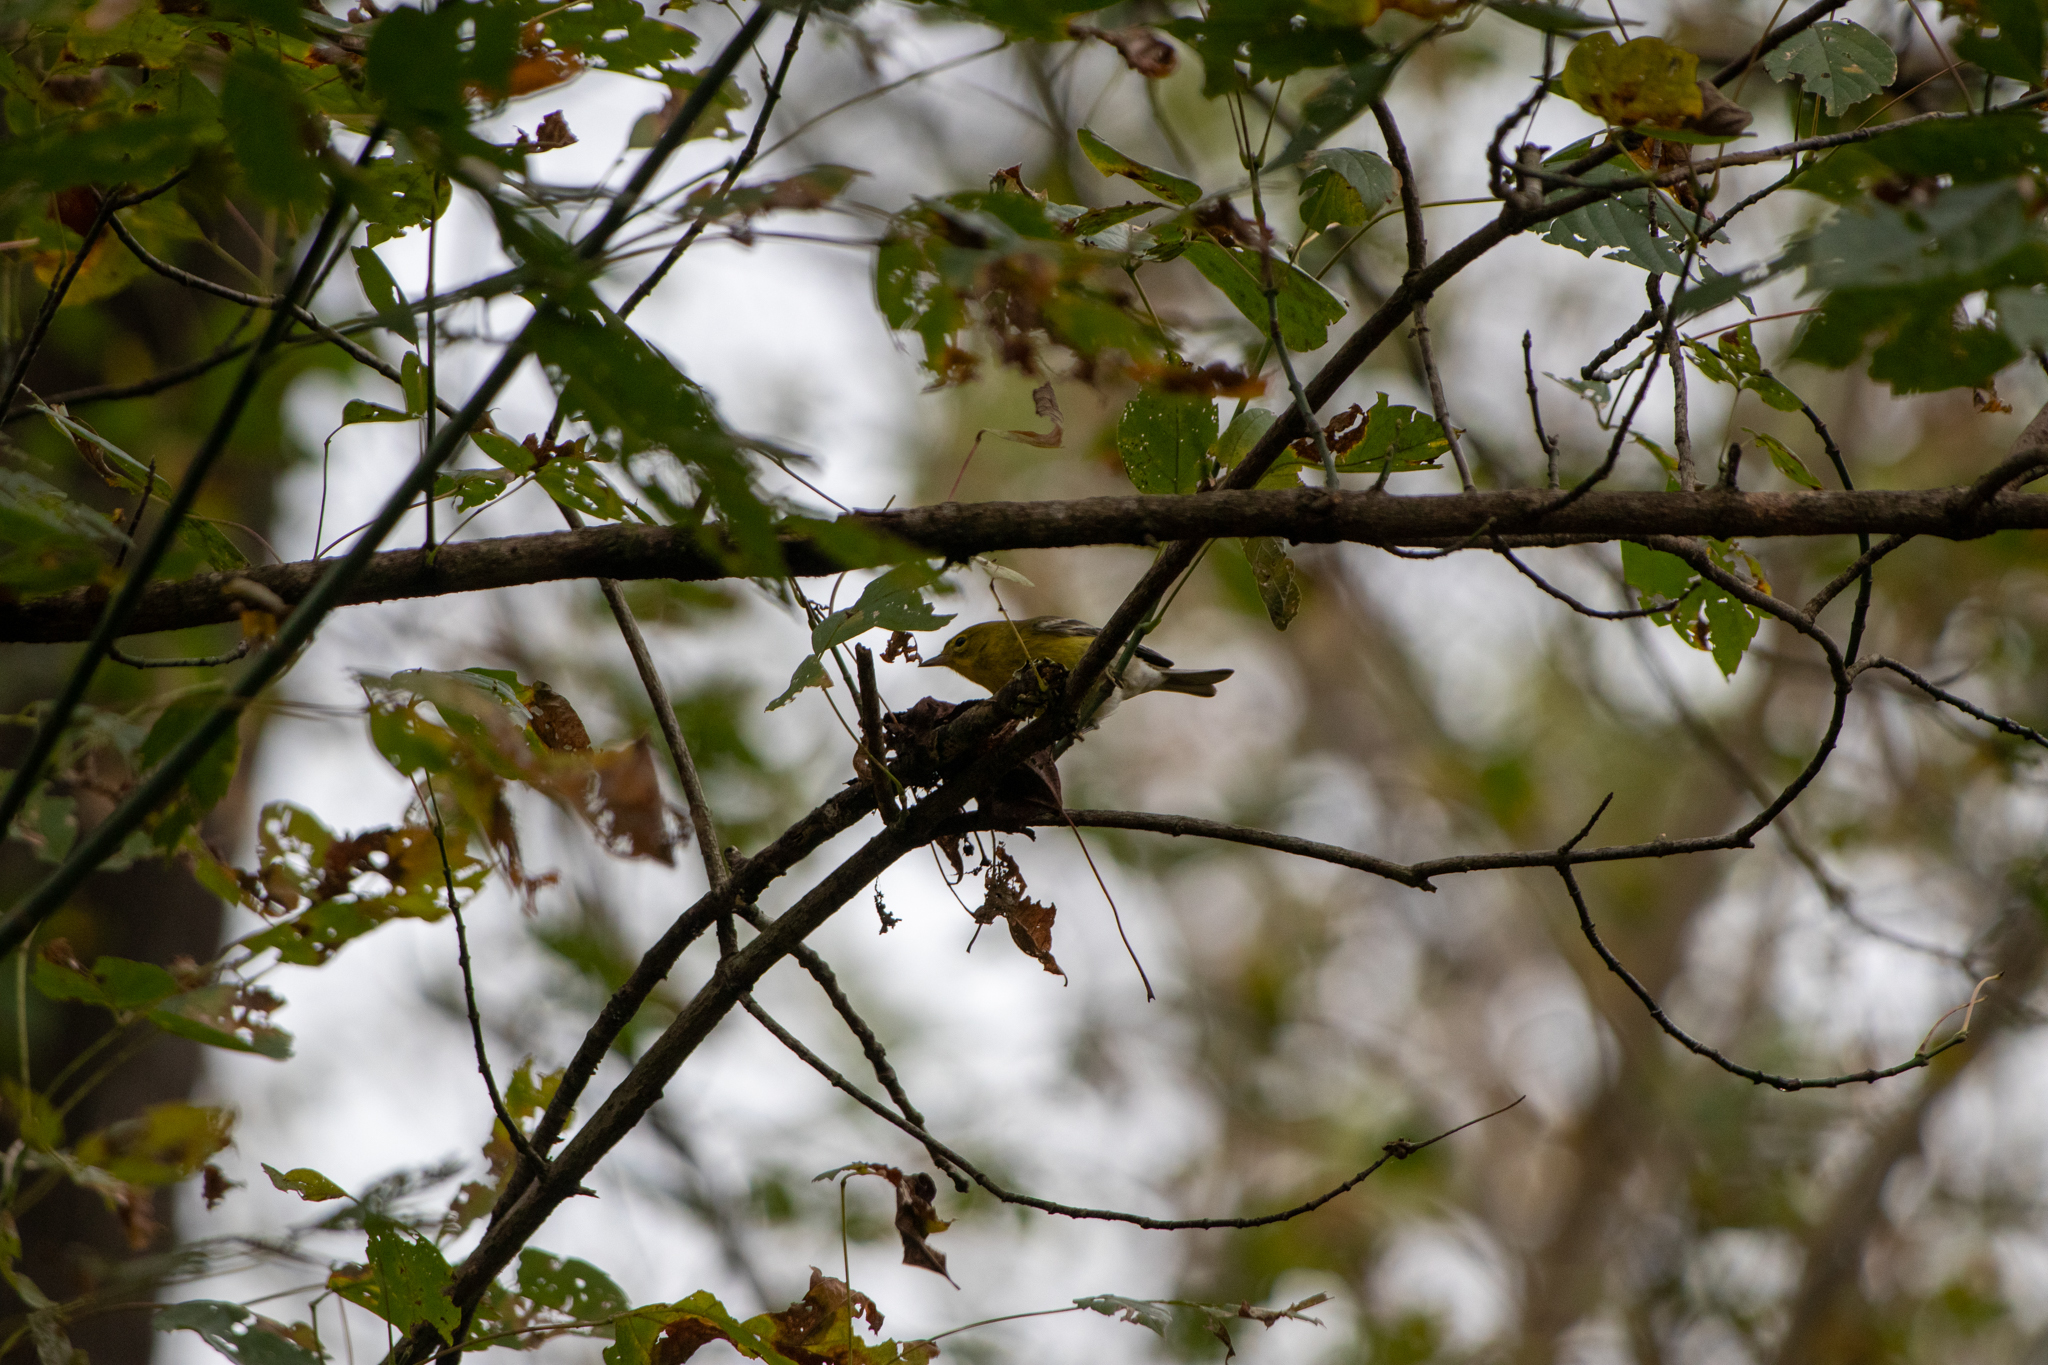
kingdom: Animalia
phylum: Chordata
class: Aves
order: Passeriformes
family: Parulidae
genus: Setophaga
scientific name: Setophaga pinus
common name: Pine warbler
